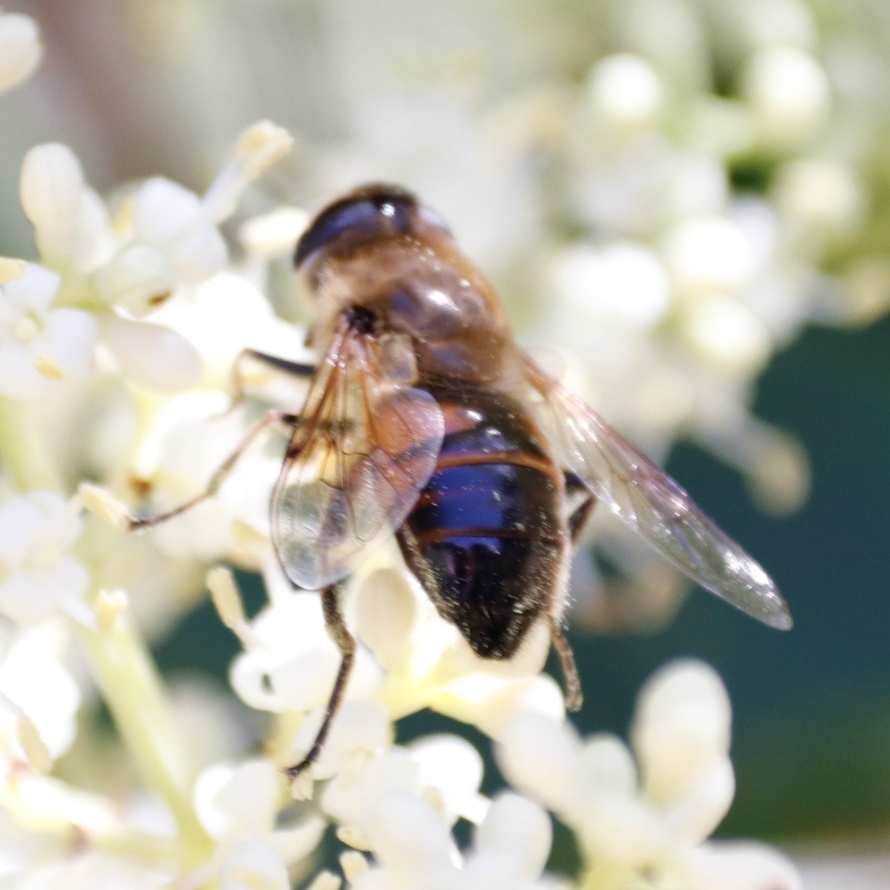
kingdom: Animalia
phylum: Arthropoda
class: Insecta
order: Diptera
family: Syrphidae
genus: Eristalis
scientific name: Eristalis tenax
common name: Drone fly
